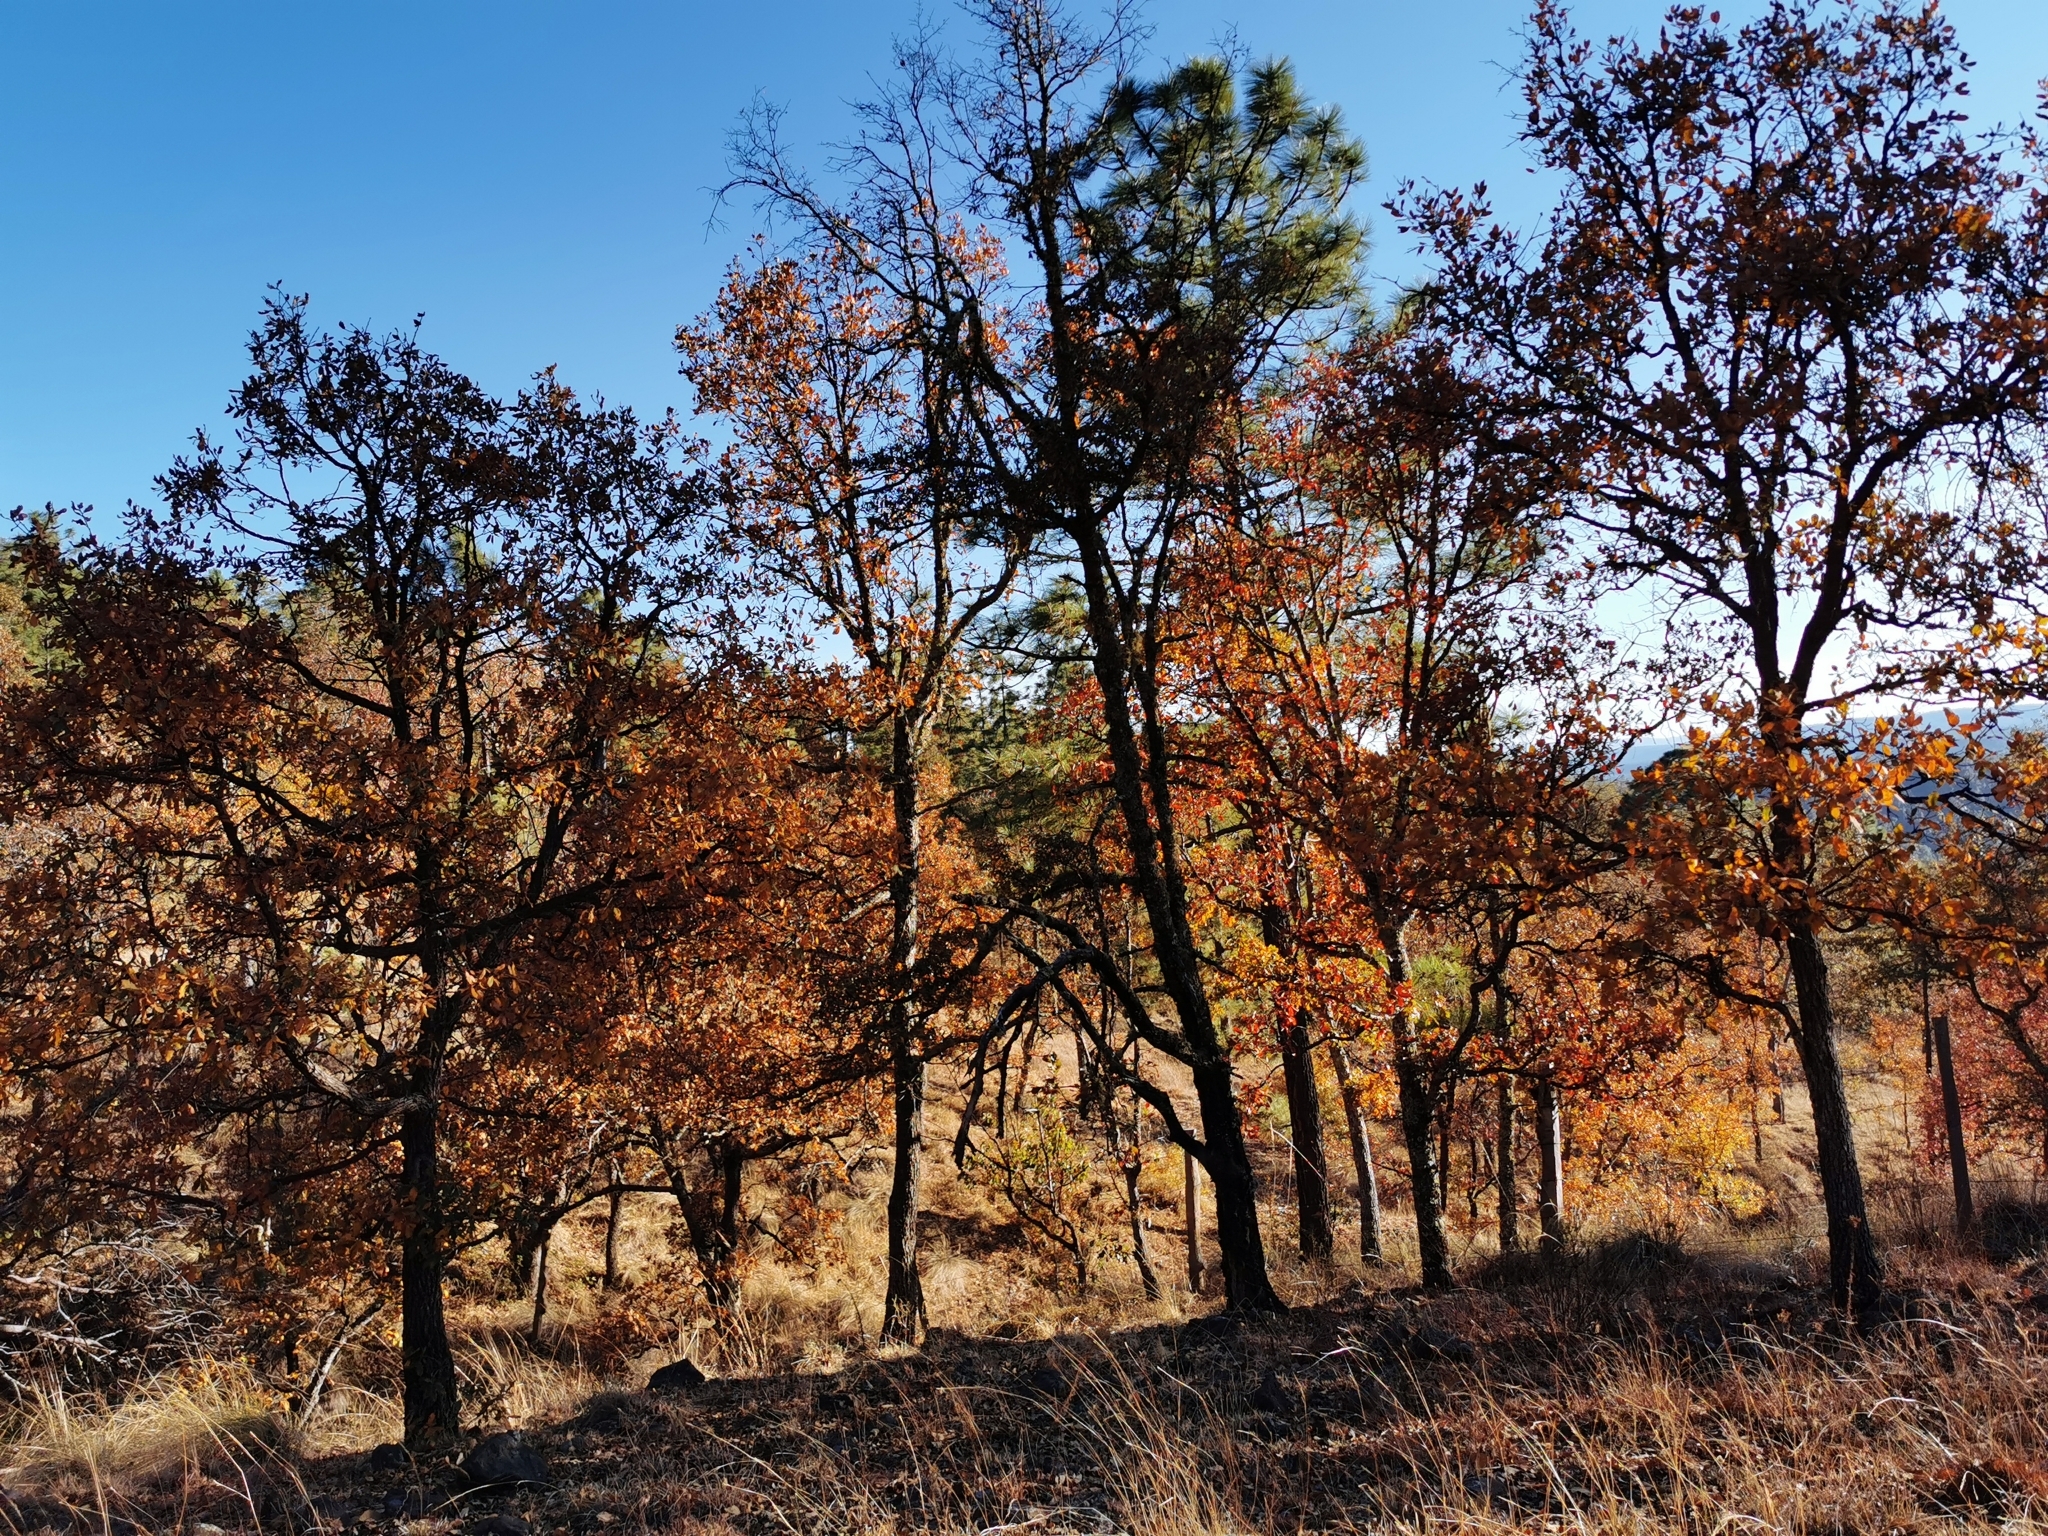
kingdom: Plantae
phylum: Tracheophyta
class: Magnoliopsida
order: Fagales
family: Fagaceae
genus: Quercus
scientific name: Quercus convallata
